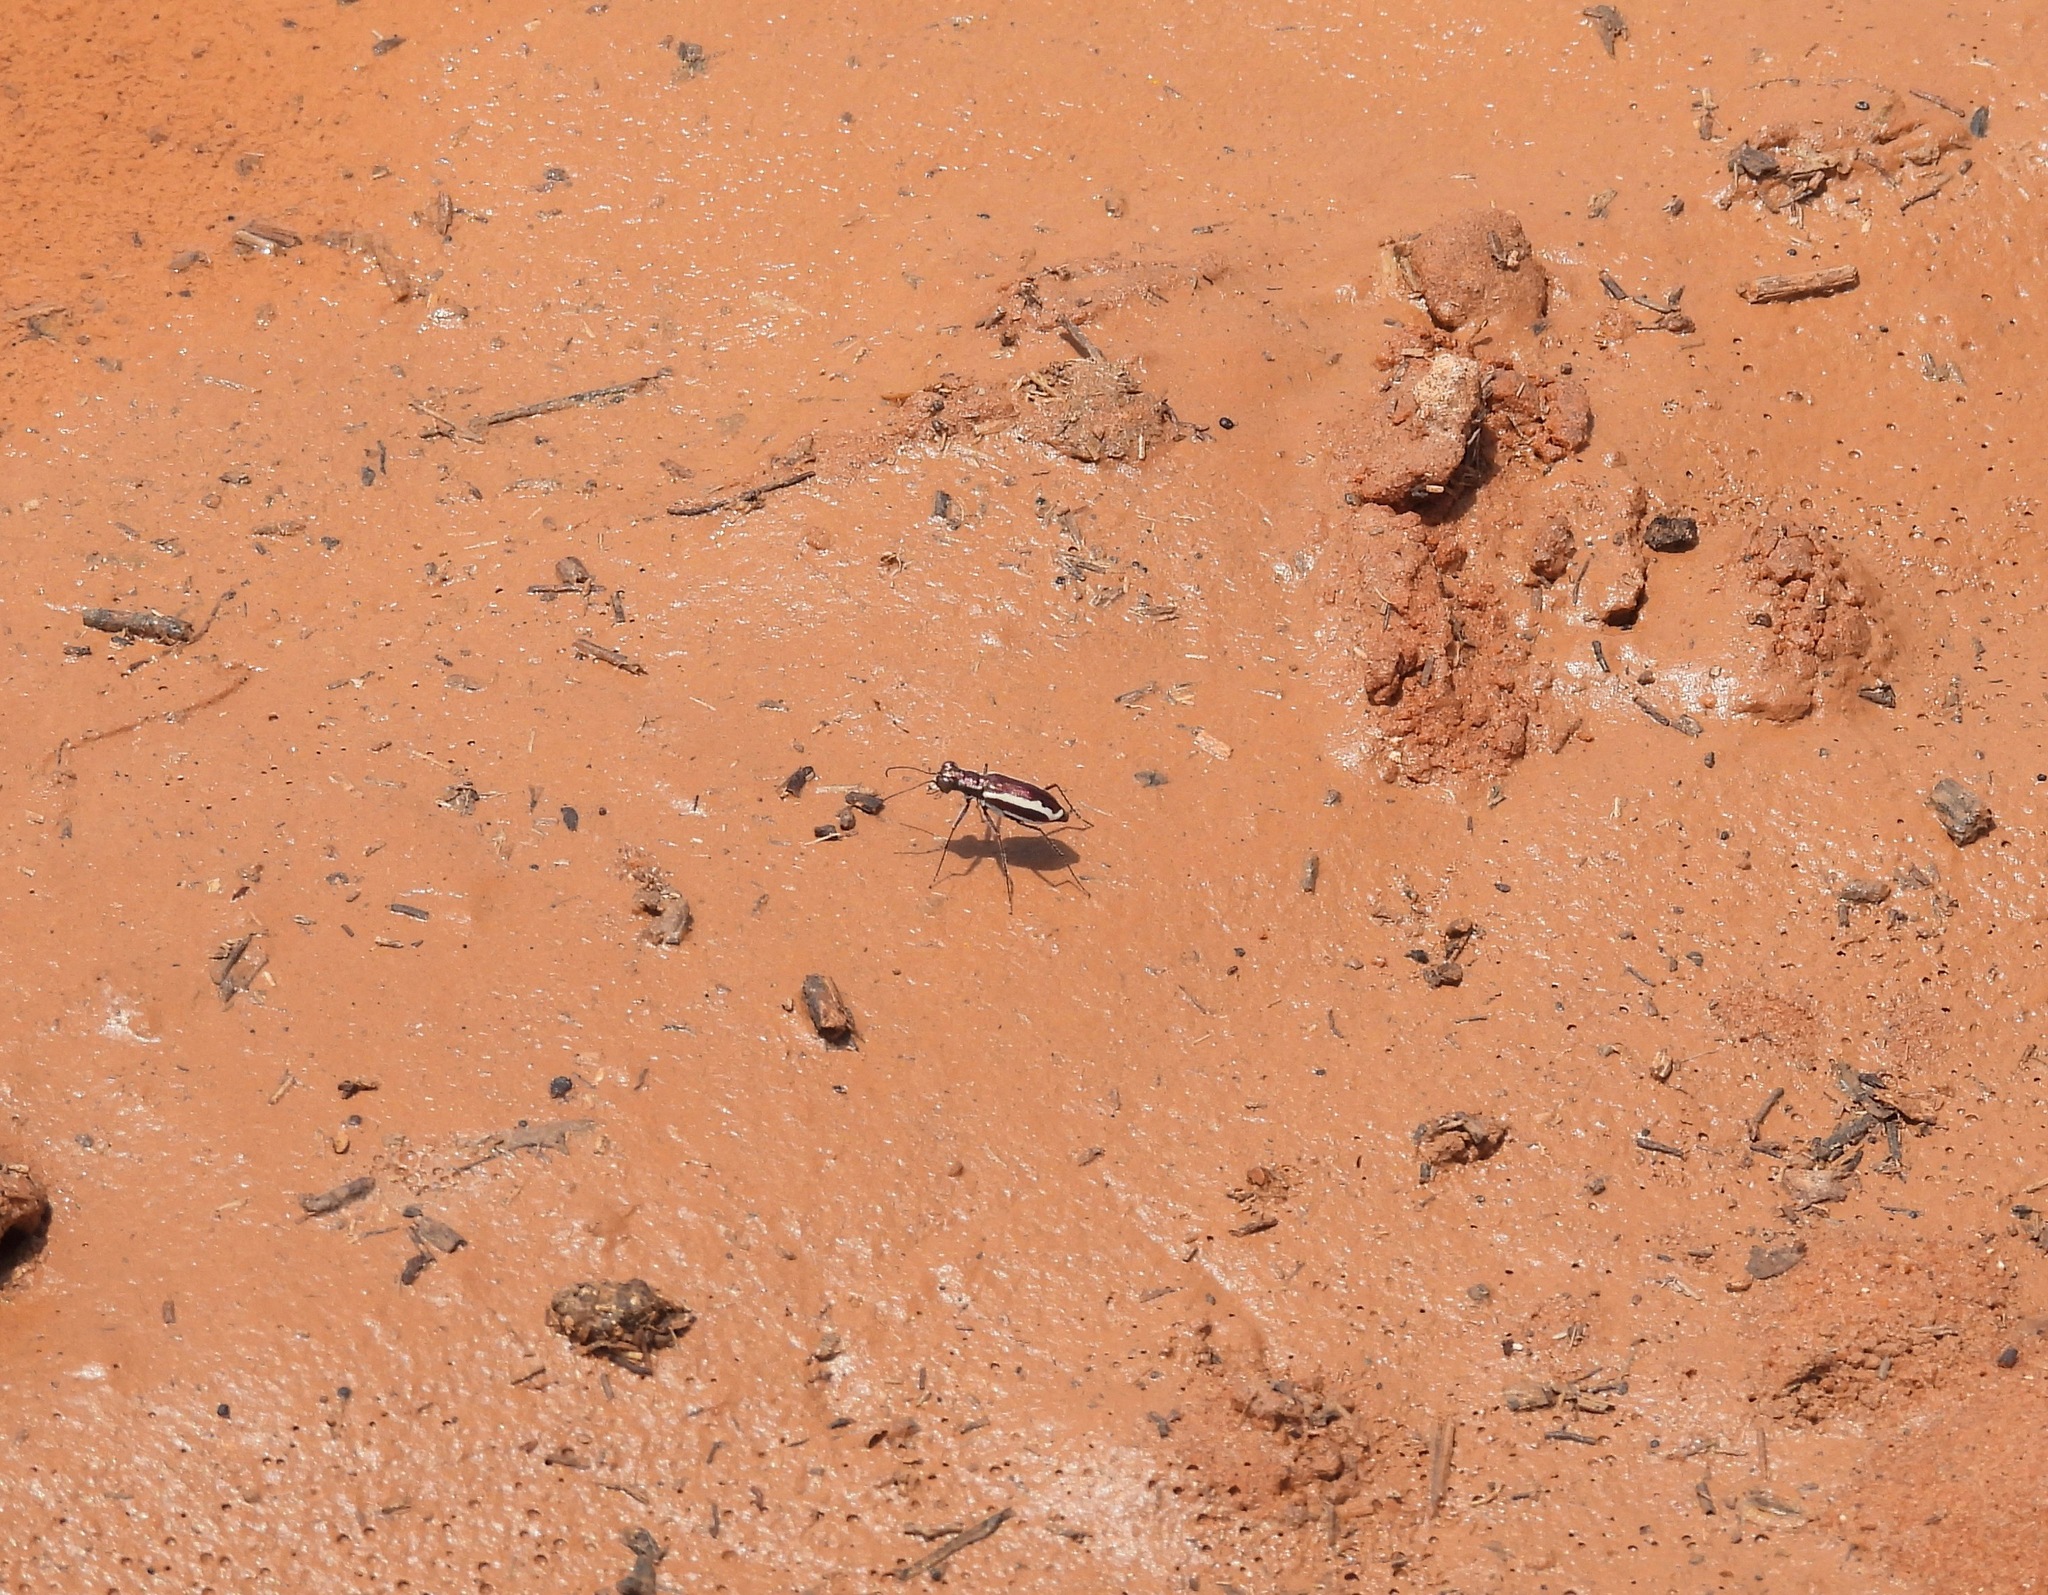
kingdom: Animalia
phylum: Arthropoda
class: Insecta
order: Coleoptera
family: Carabidae
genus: Cylindera
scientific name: Cylindera lemniscata
